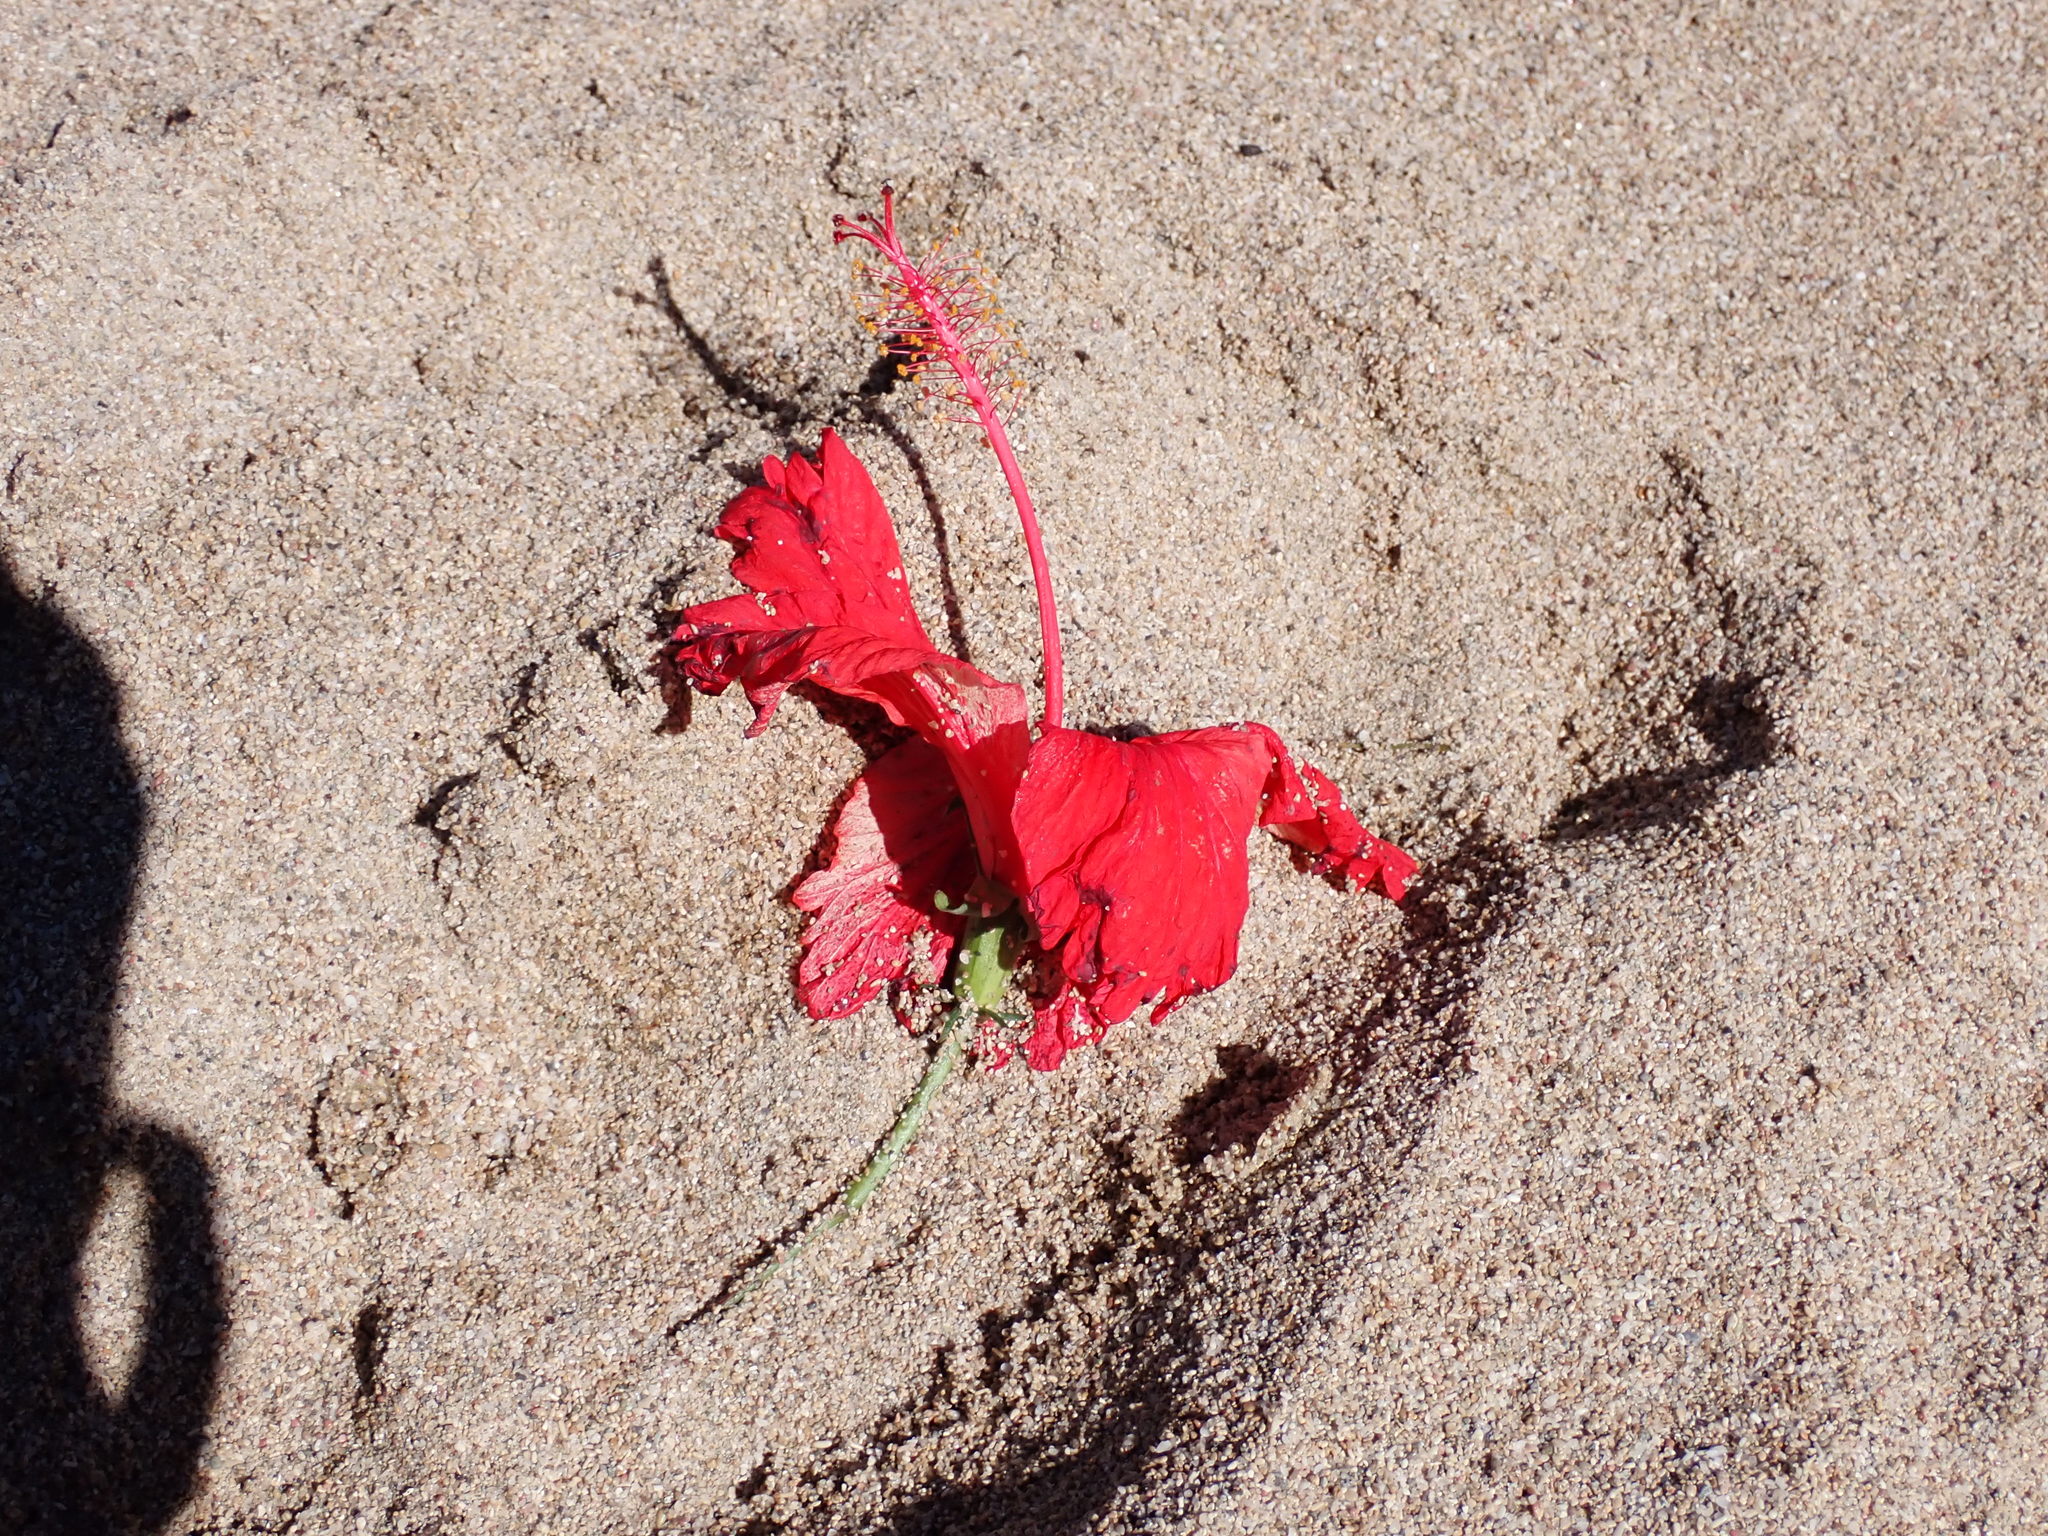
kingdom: Plantae
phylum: Tracheophyta
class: Magnoliopsida
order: Malvales
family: Malvaceae
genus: Hibiscus
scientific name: Hibiscus archeri
